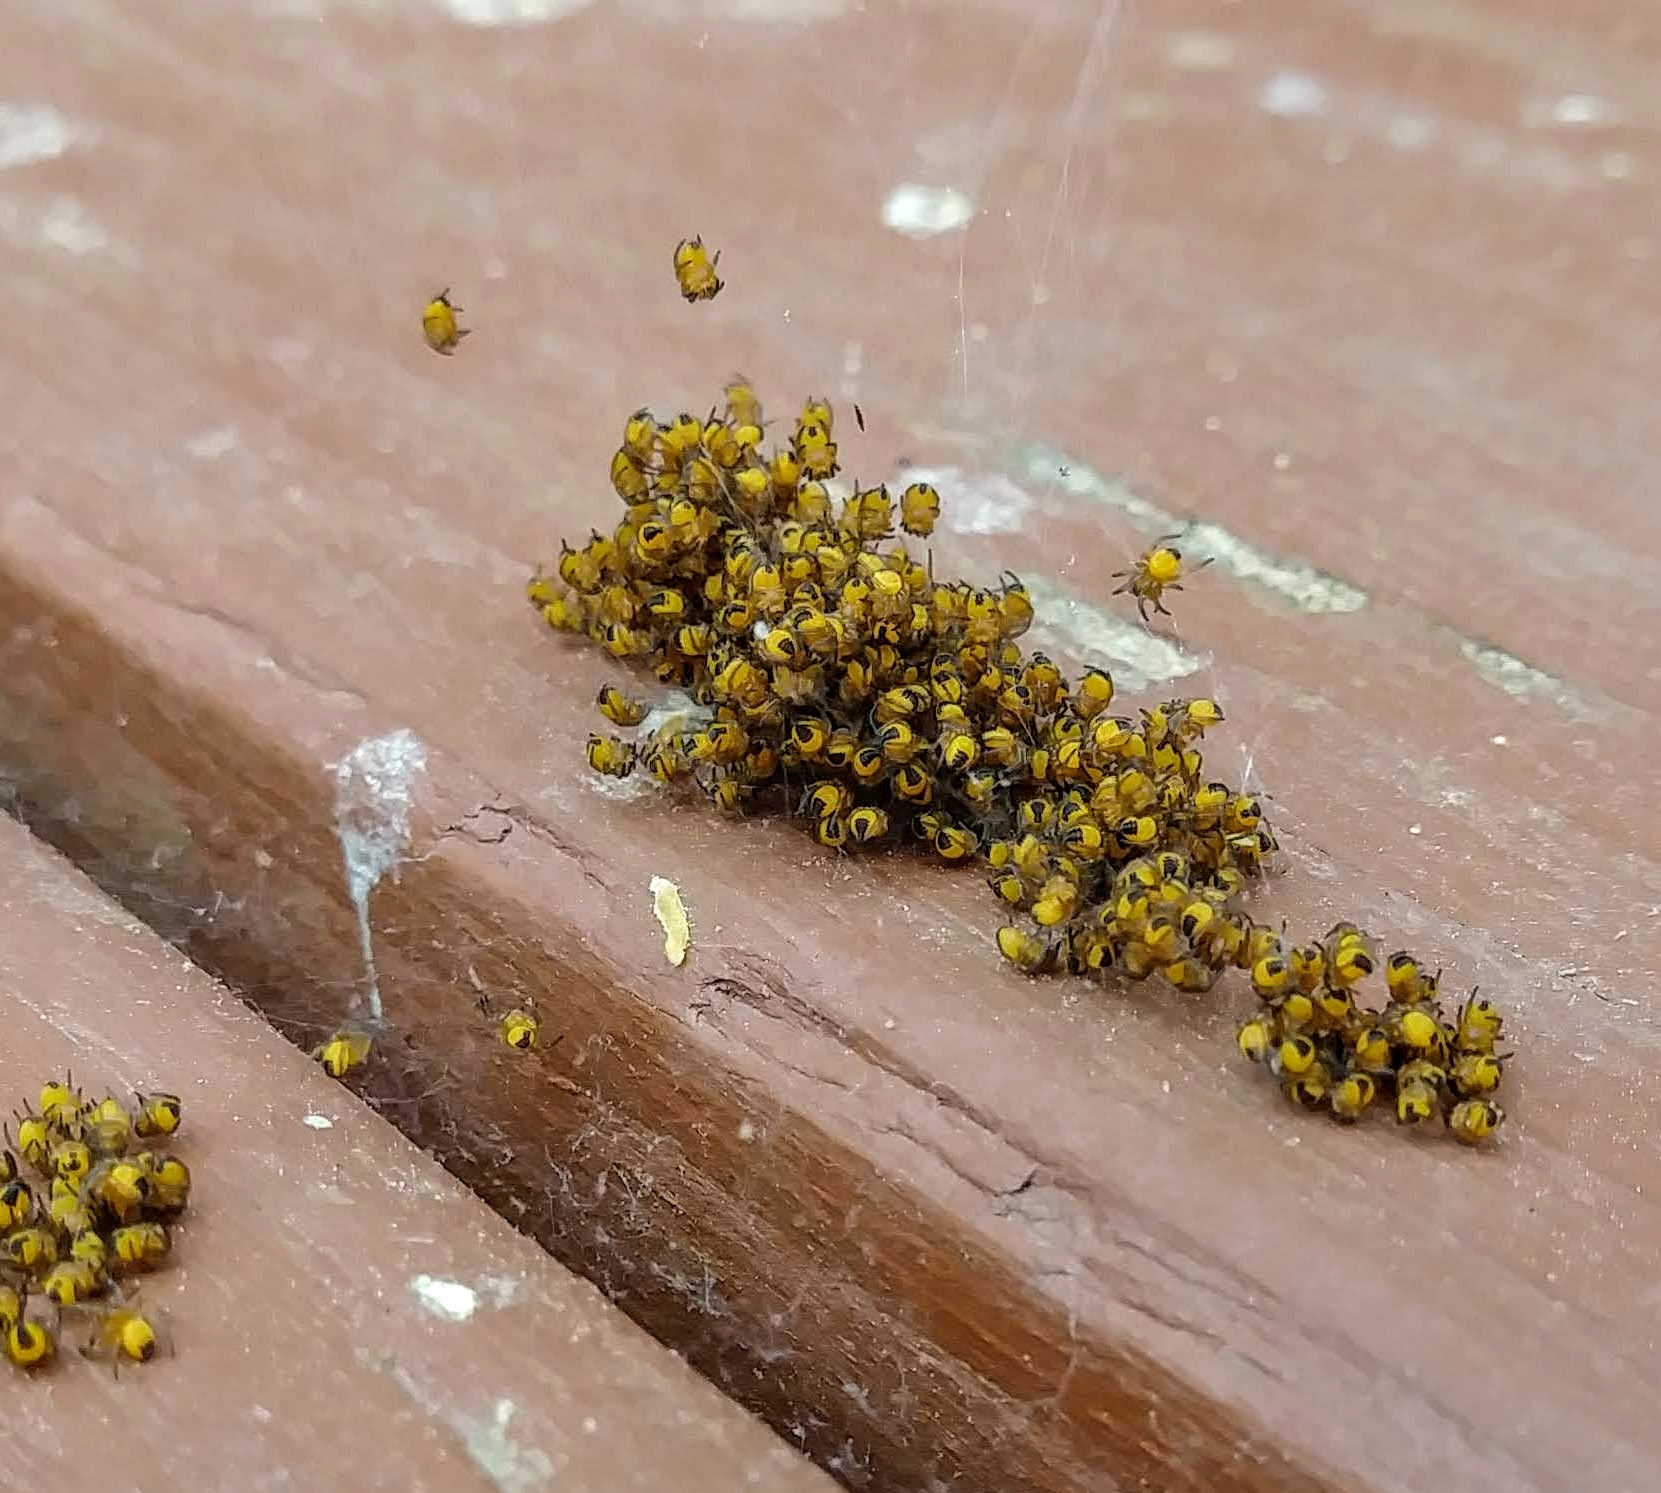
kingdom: Animalia
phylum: Arthropoda
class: Arachnida
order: Araneae
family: Araneidae
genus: Araneus
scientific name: Araneus diadematus
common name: Cross orbweaver
